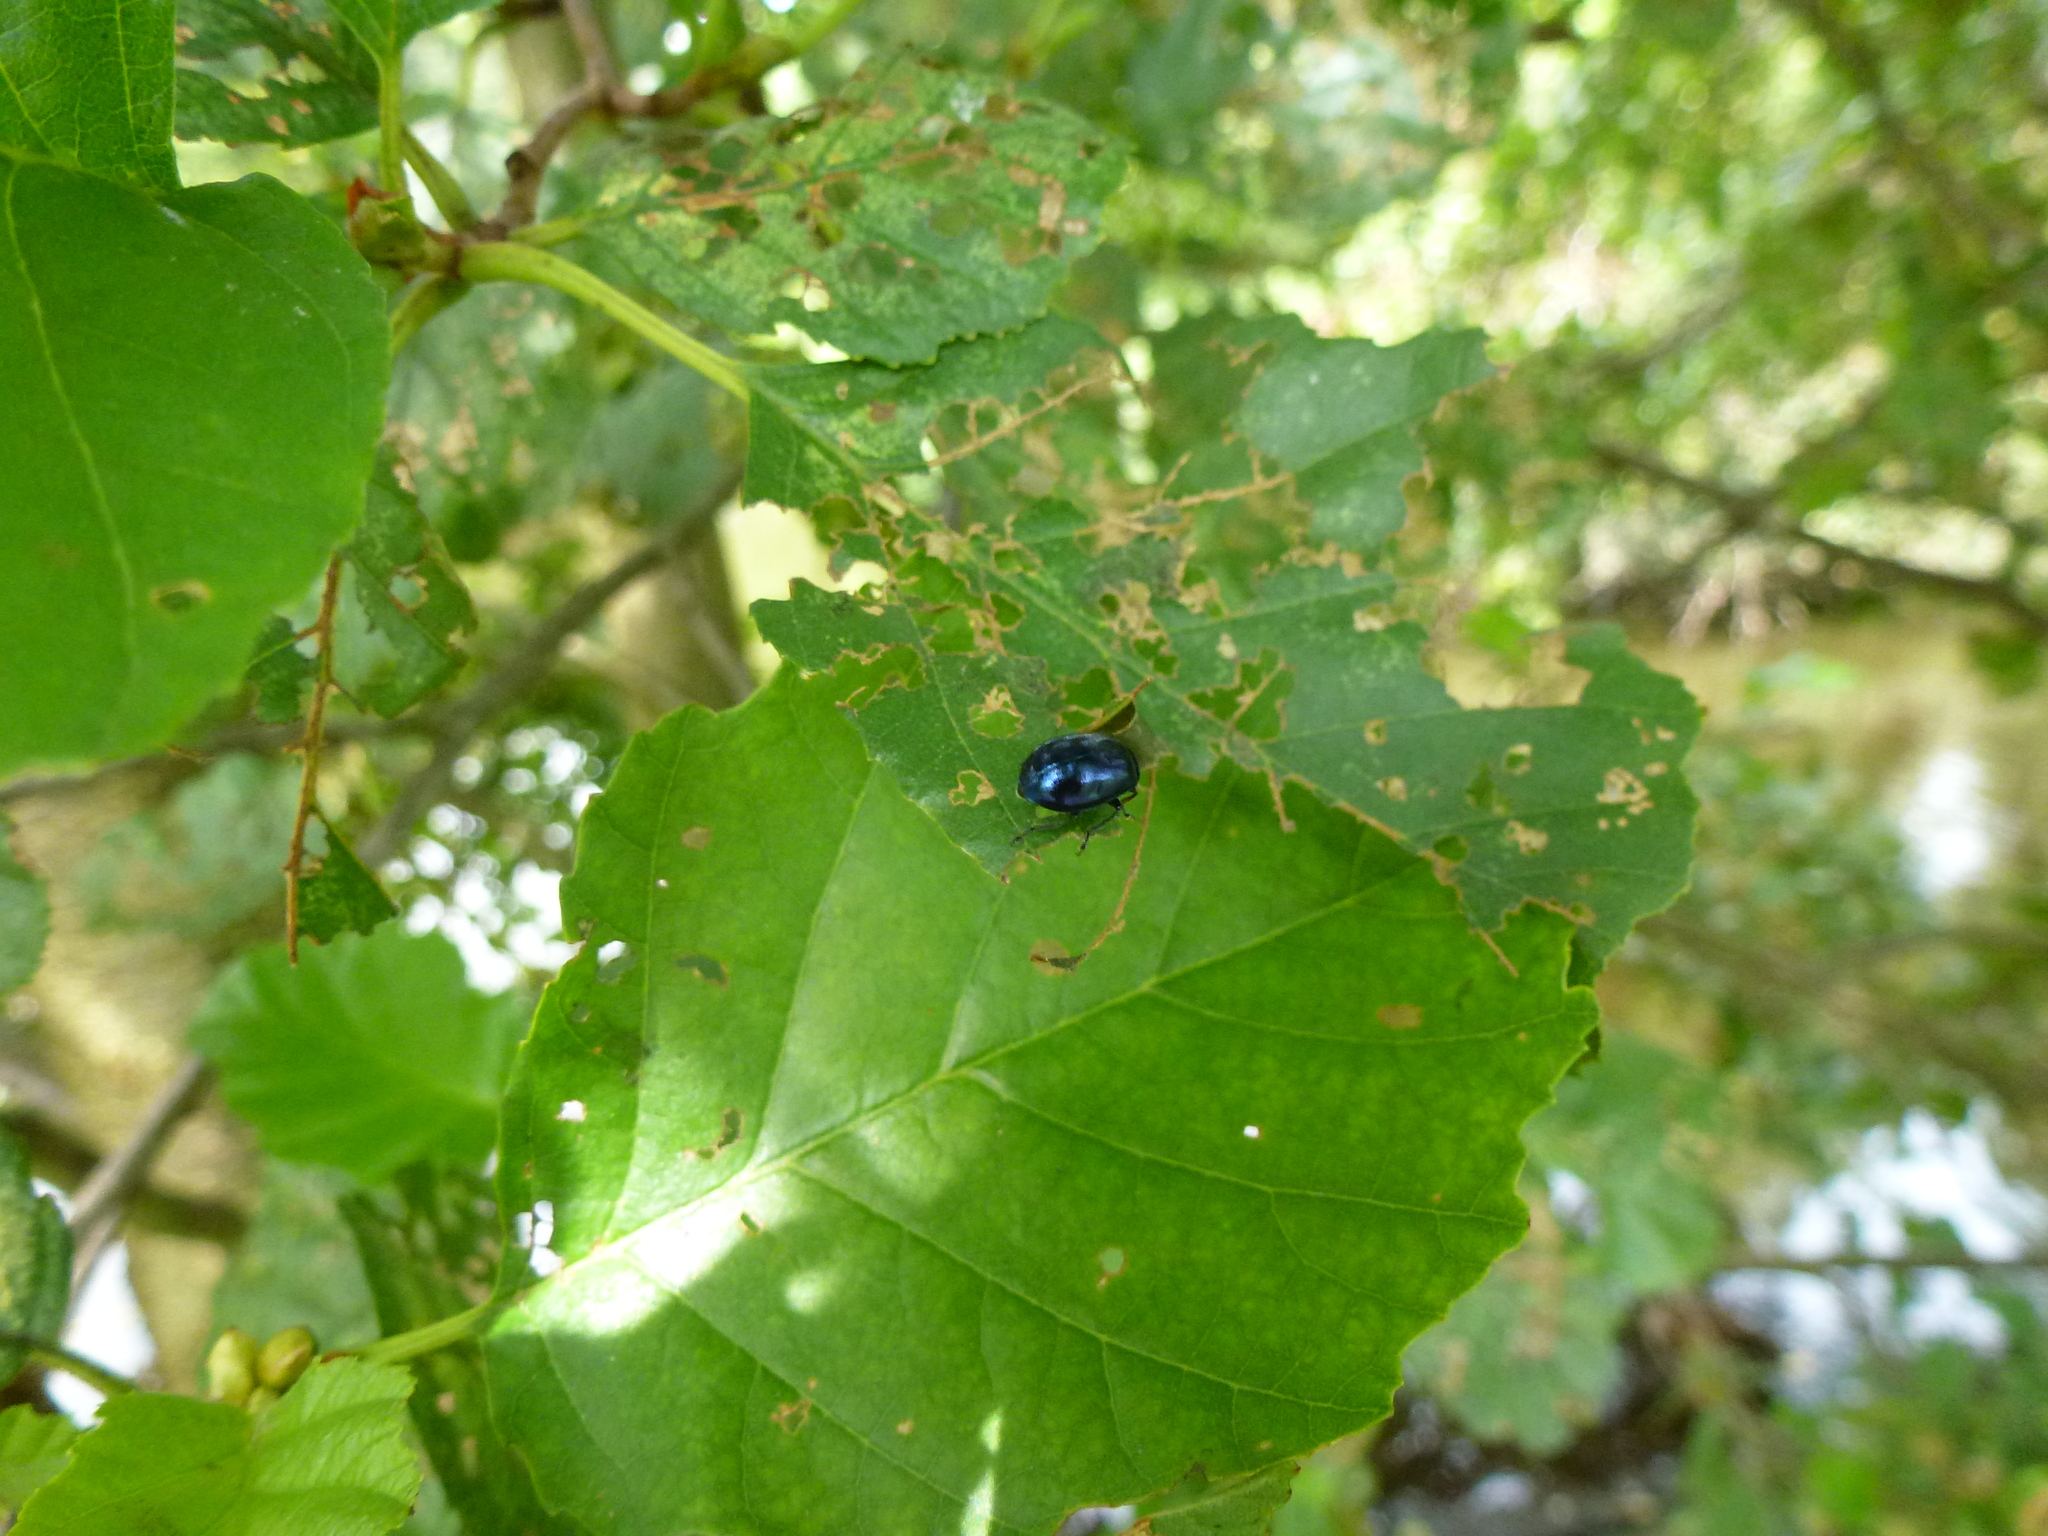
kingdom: Animalia
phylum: Arthropoda
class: Insecta
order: Coleoptera
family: Chrysomelidae
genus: Agelastica
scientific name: Agelastica alni
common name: Alder leaf beetle
